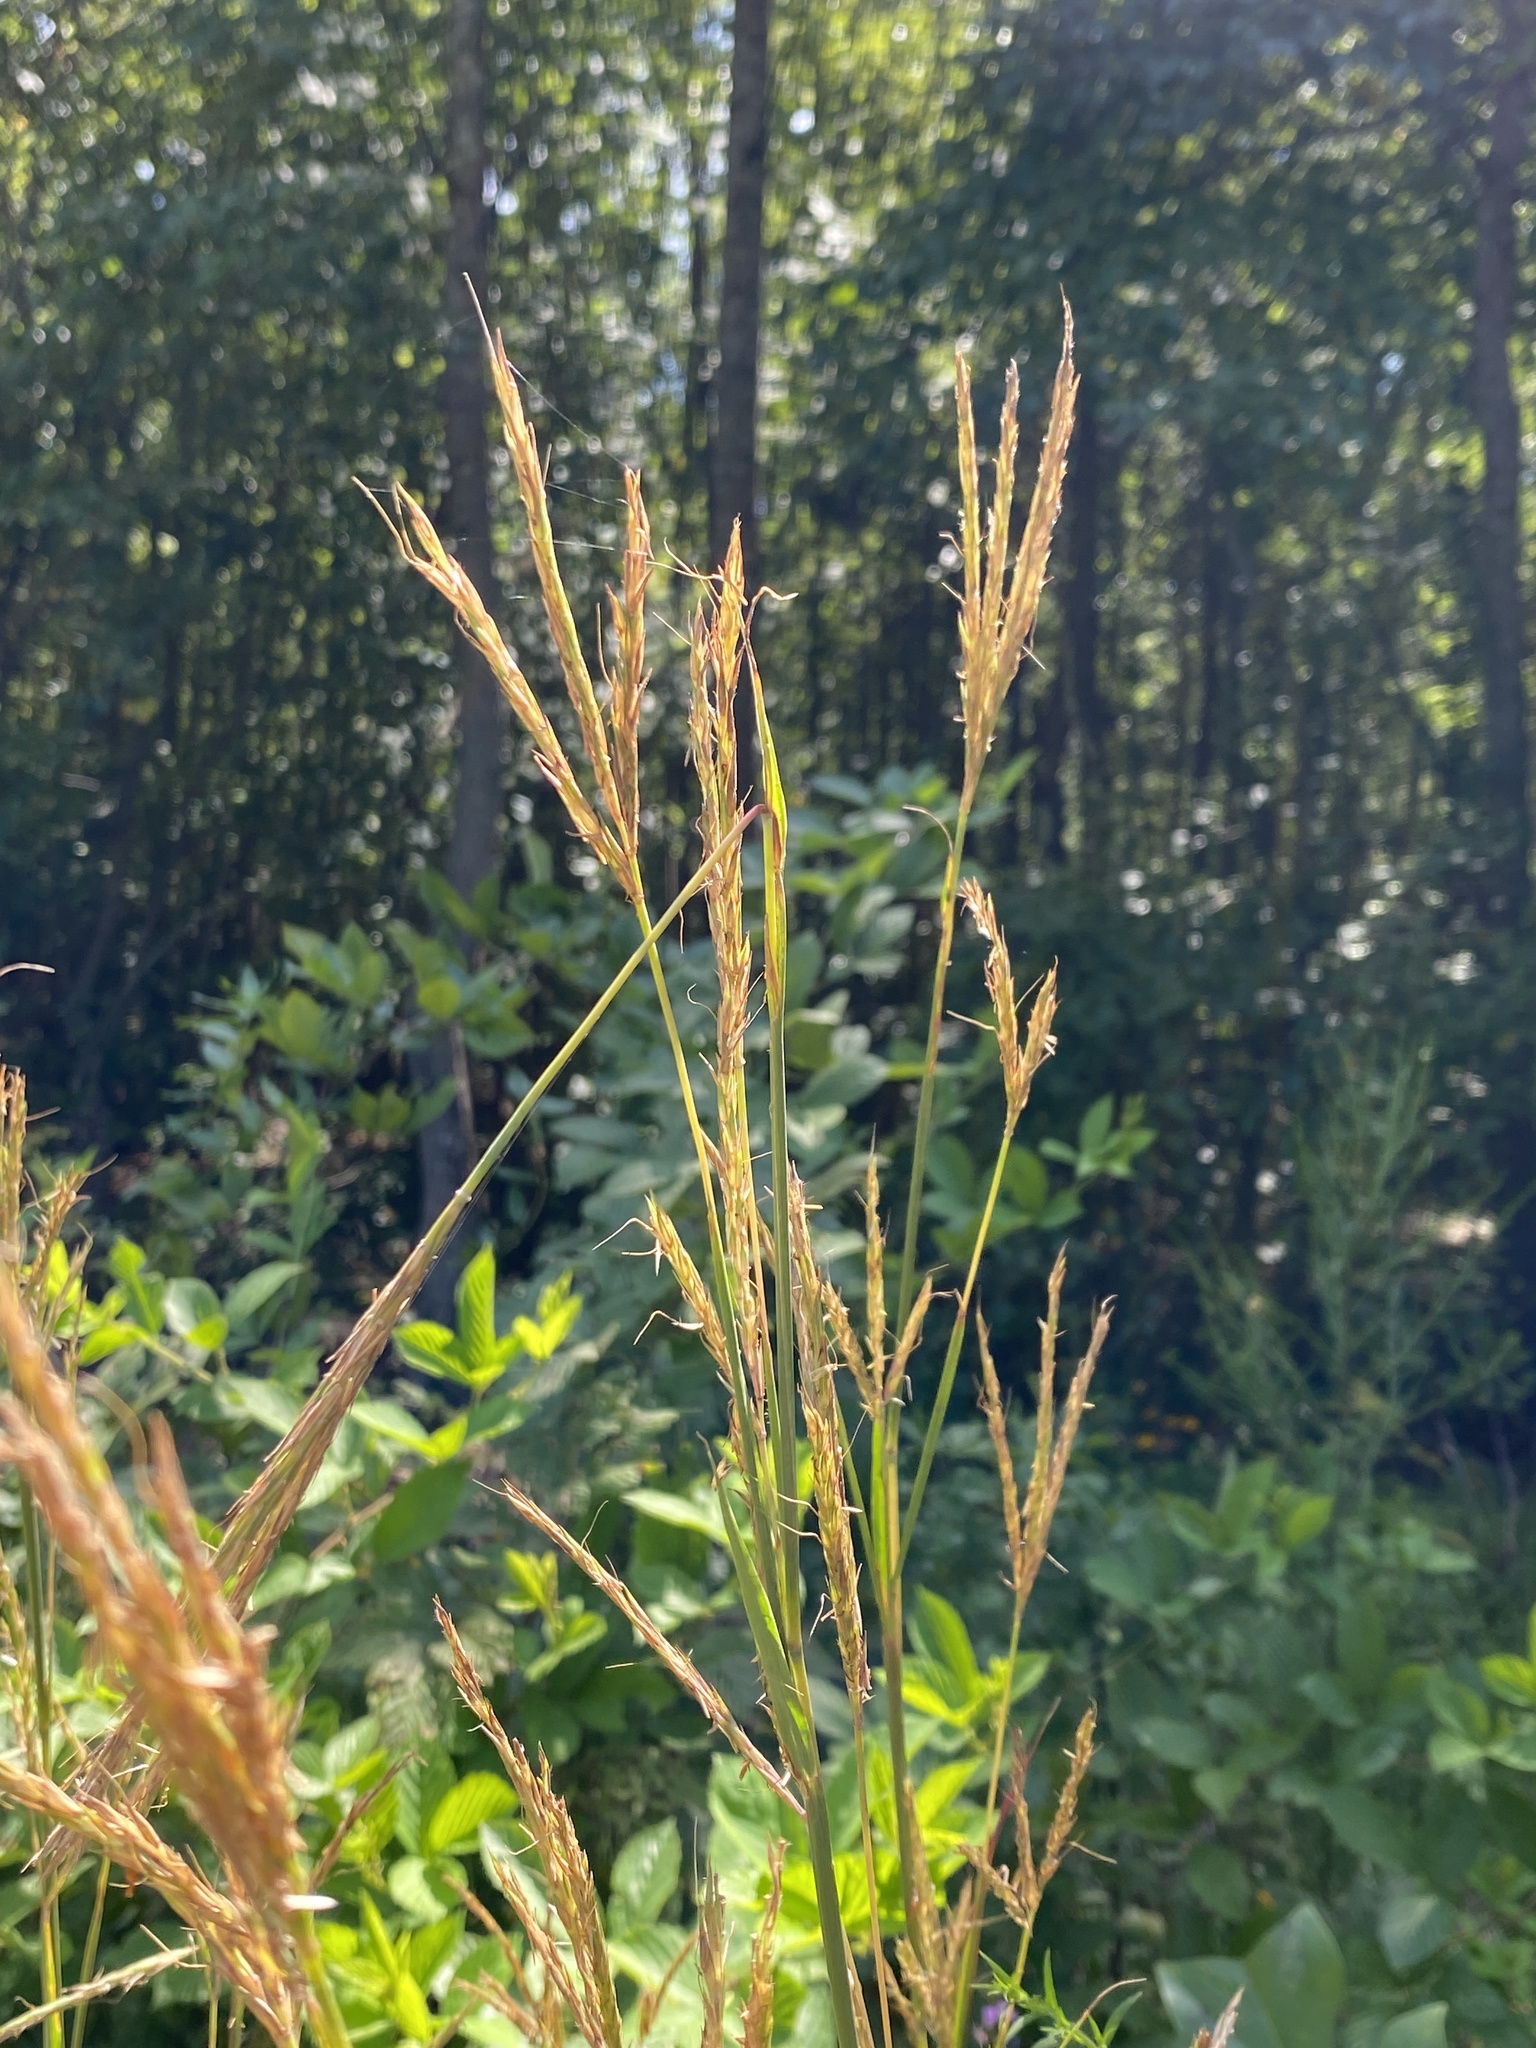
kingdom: Plantae
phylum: Tracheophyta
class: Liliopsida
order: Poales
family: Poaceae
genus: Andropogon
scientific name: Andropogon gerardi
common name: Big bluestem
